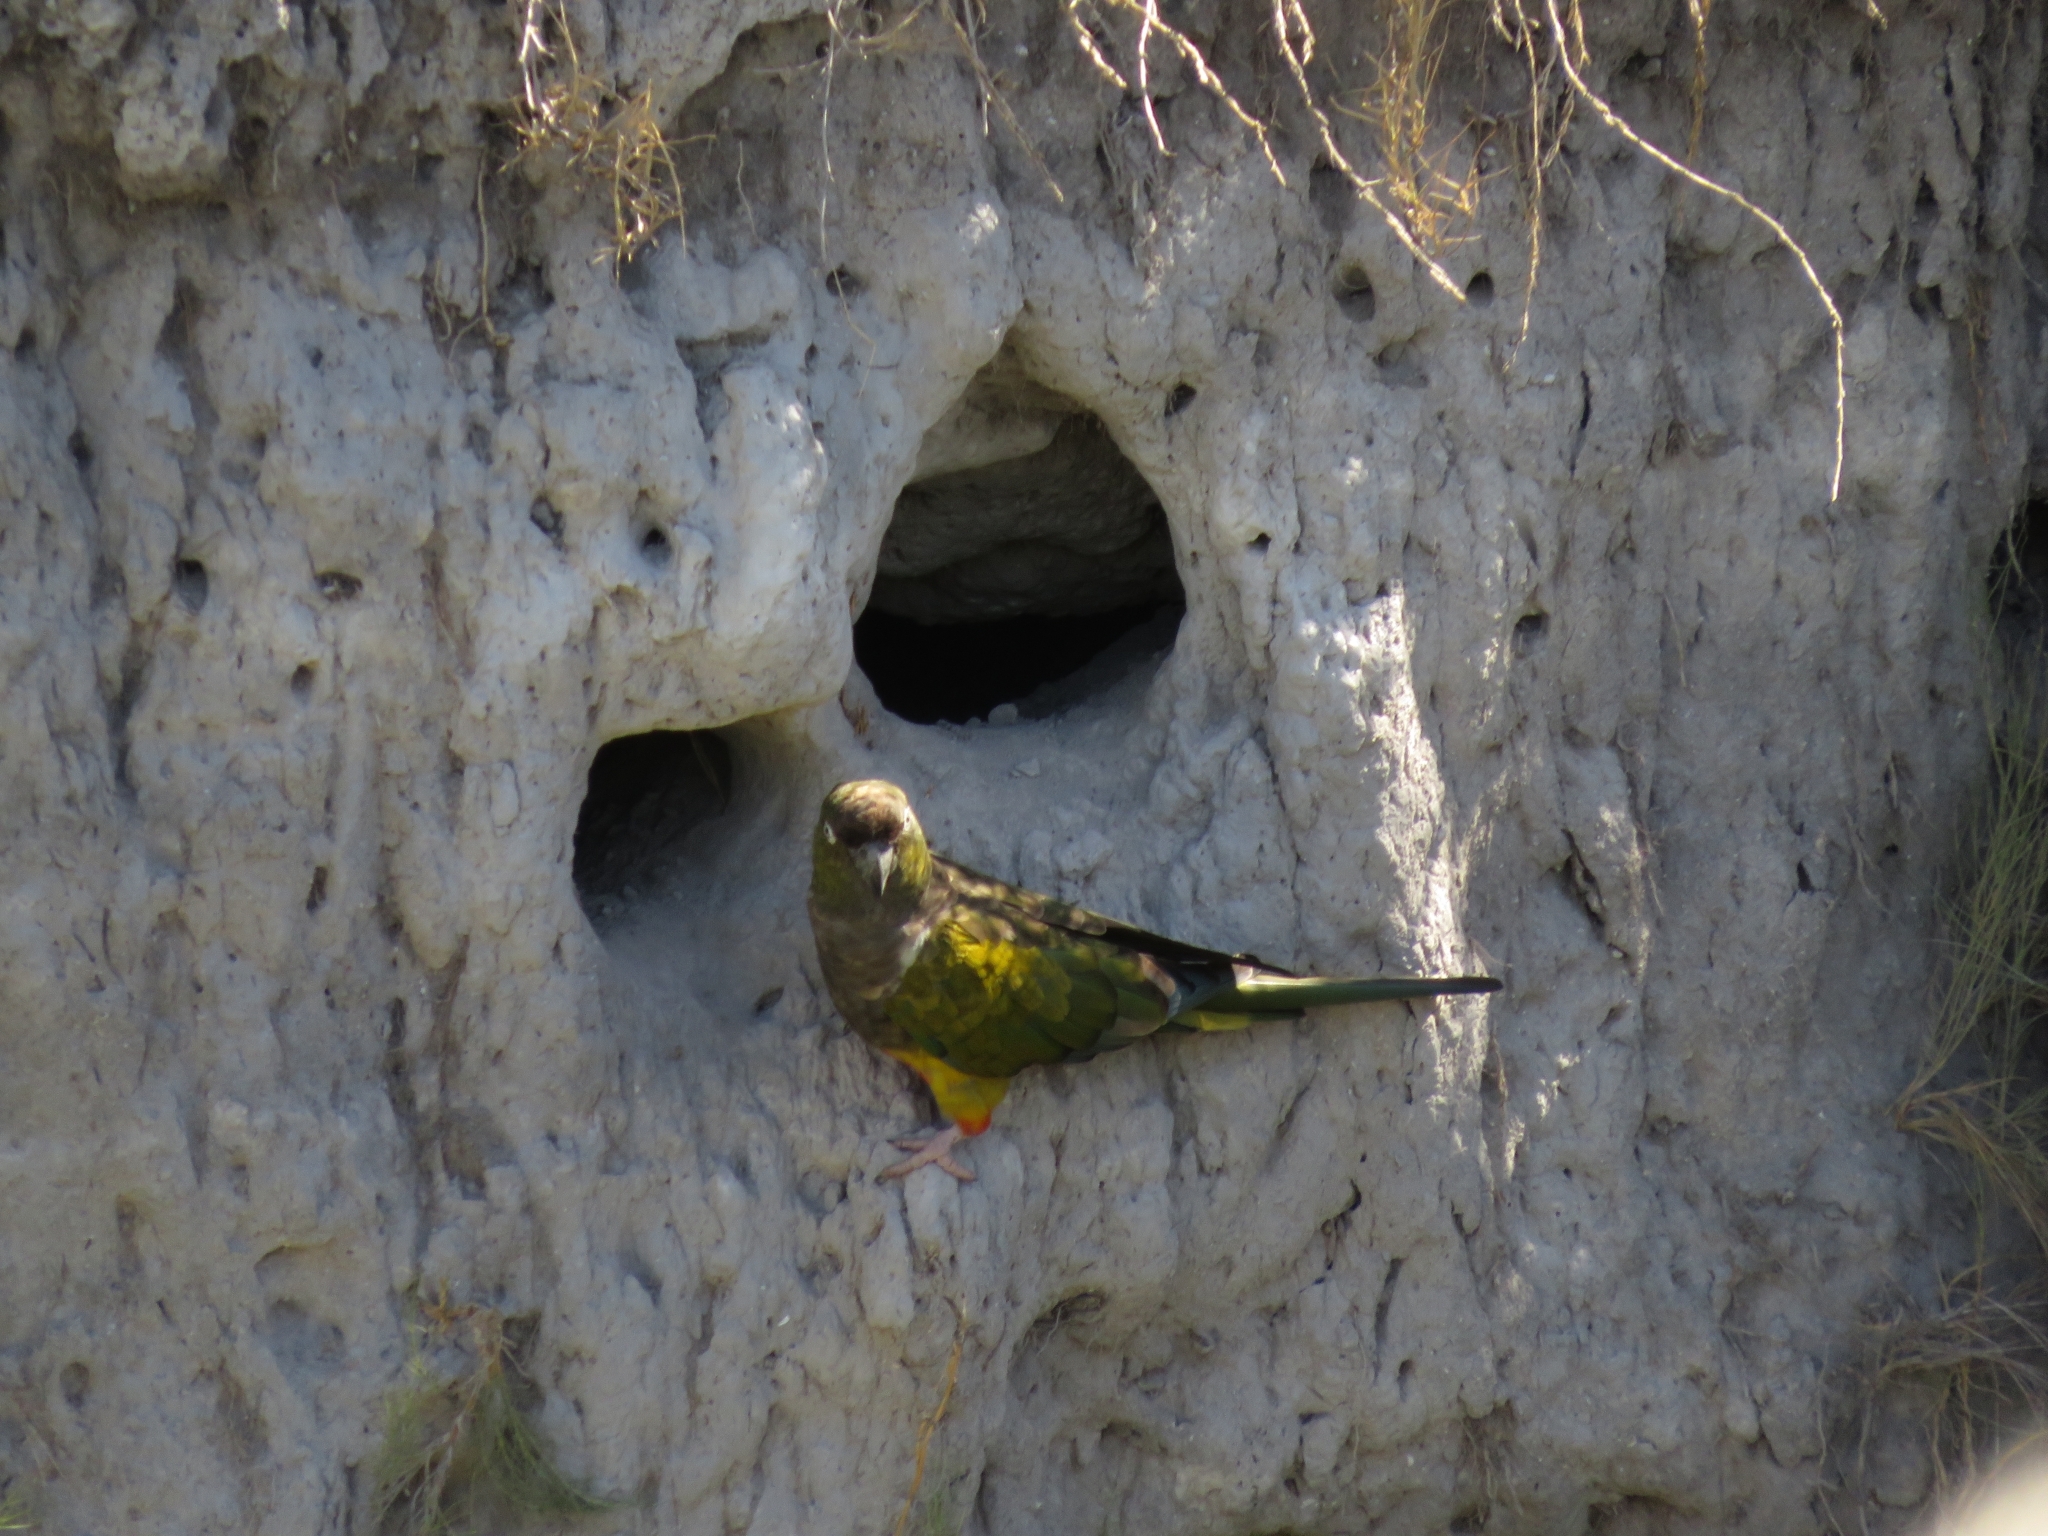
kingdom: Animalia
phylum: Chordata
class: Aves
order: Psittaciformes
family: Psittacidae
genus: Cyanoliseus
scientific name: Cyanoliseus patagonus
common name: Burrowing parrot
